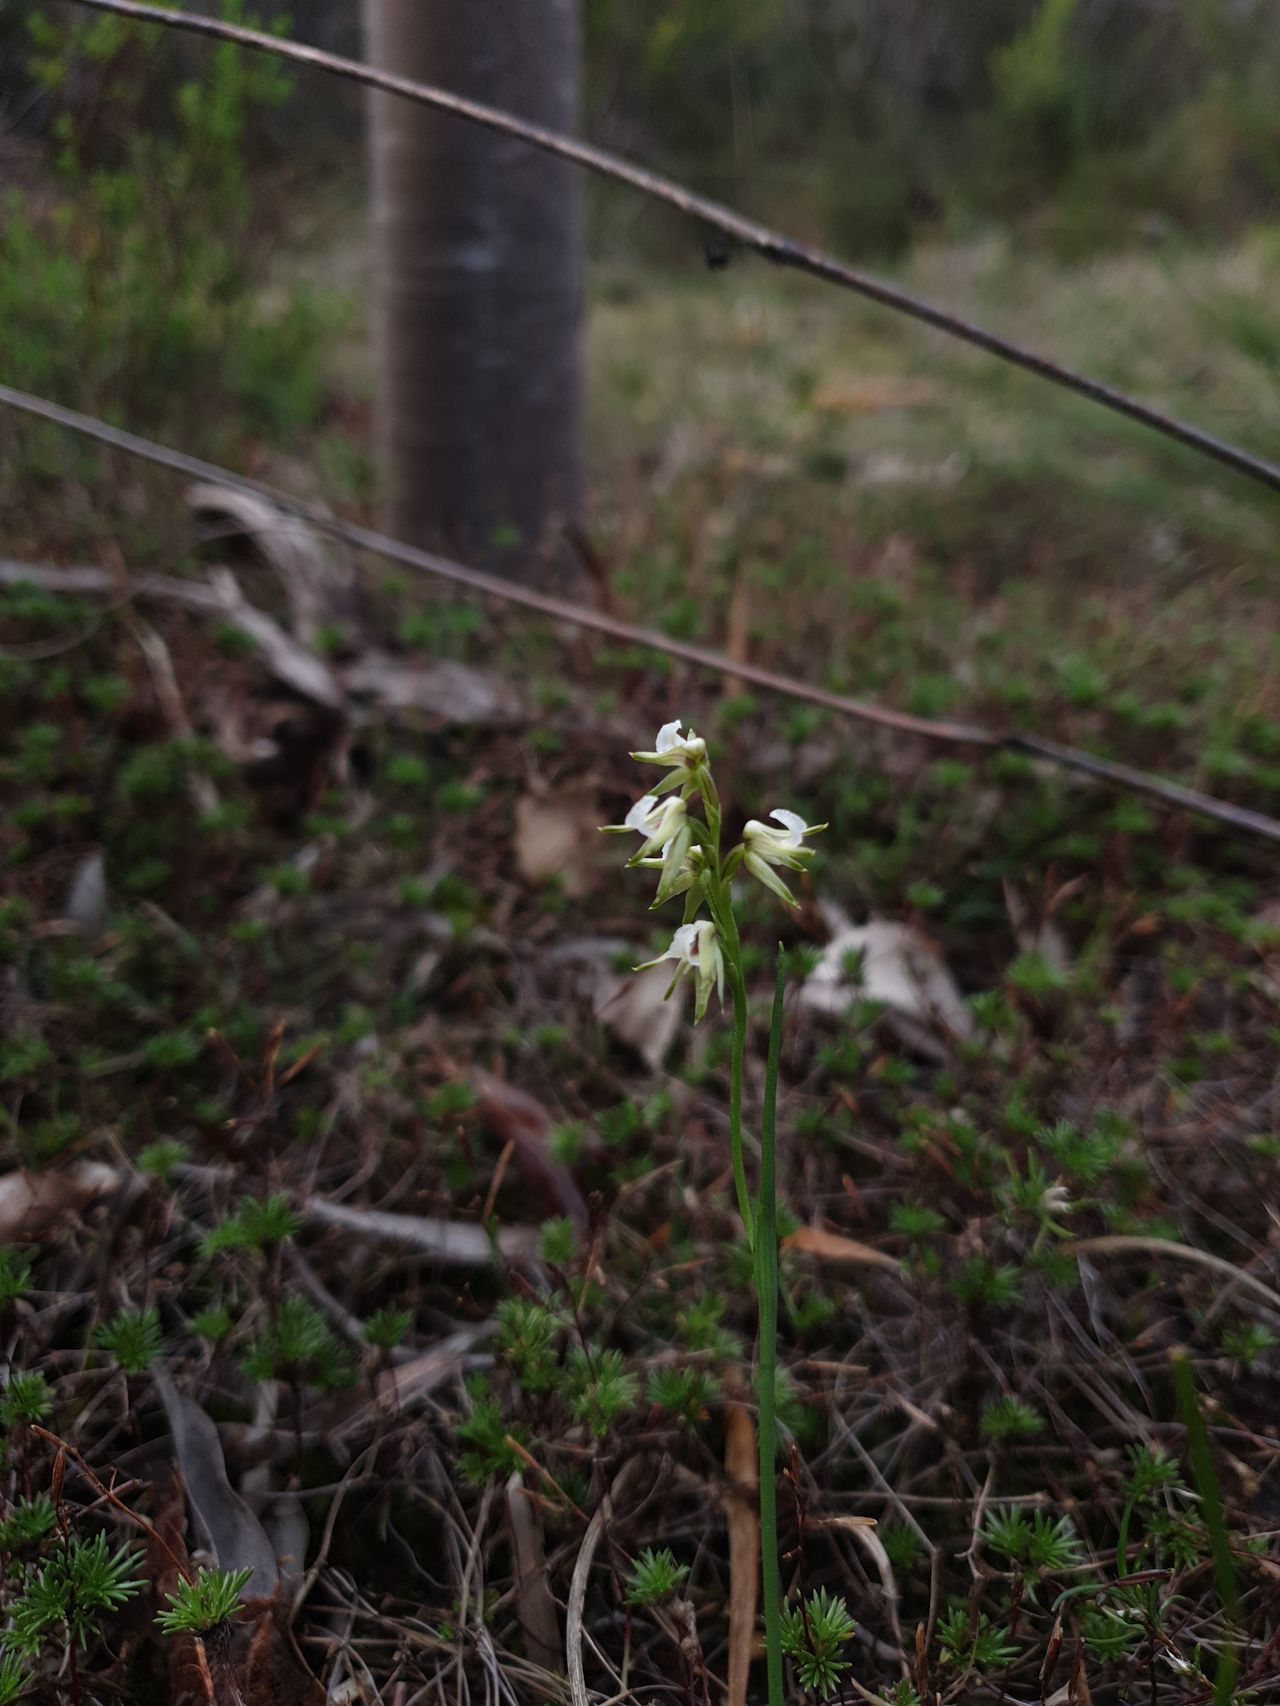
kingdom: Plantae
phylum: Tracheophyta
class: Liliopsida
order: Asparagales
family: Orchidaceae
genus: Prasophyllum
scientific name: Prasophyllum parvifolium
